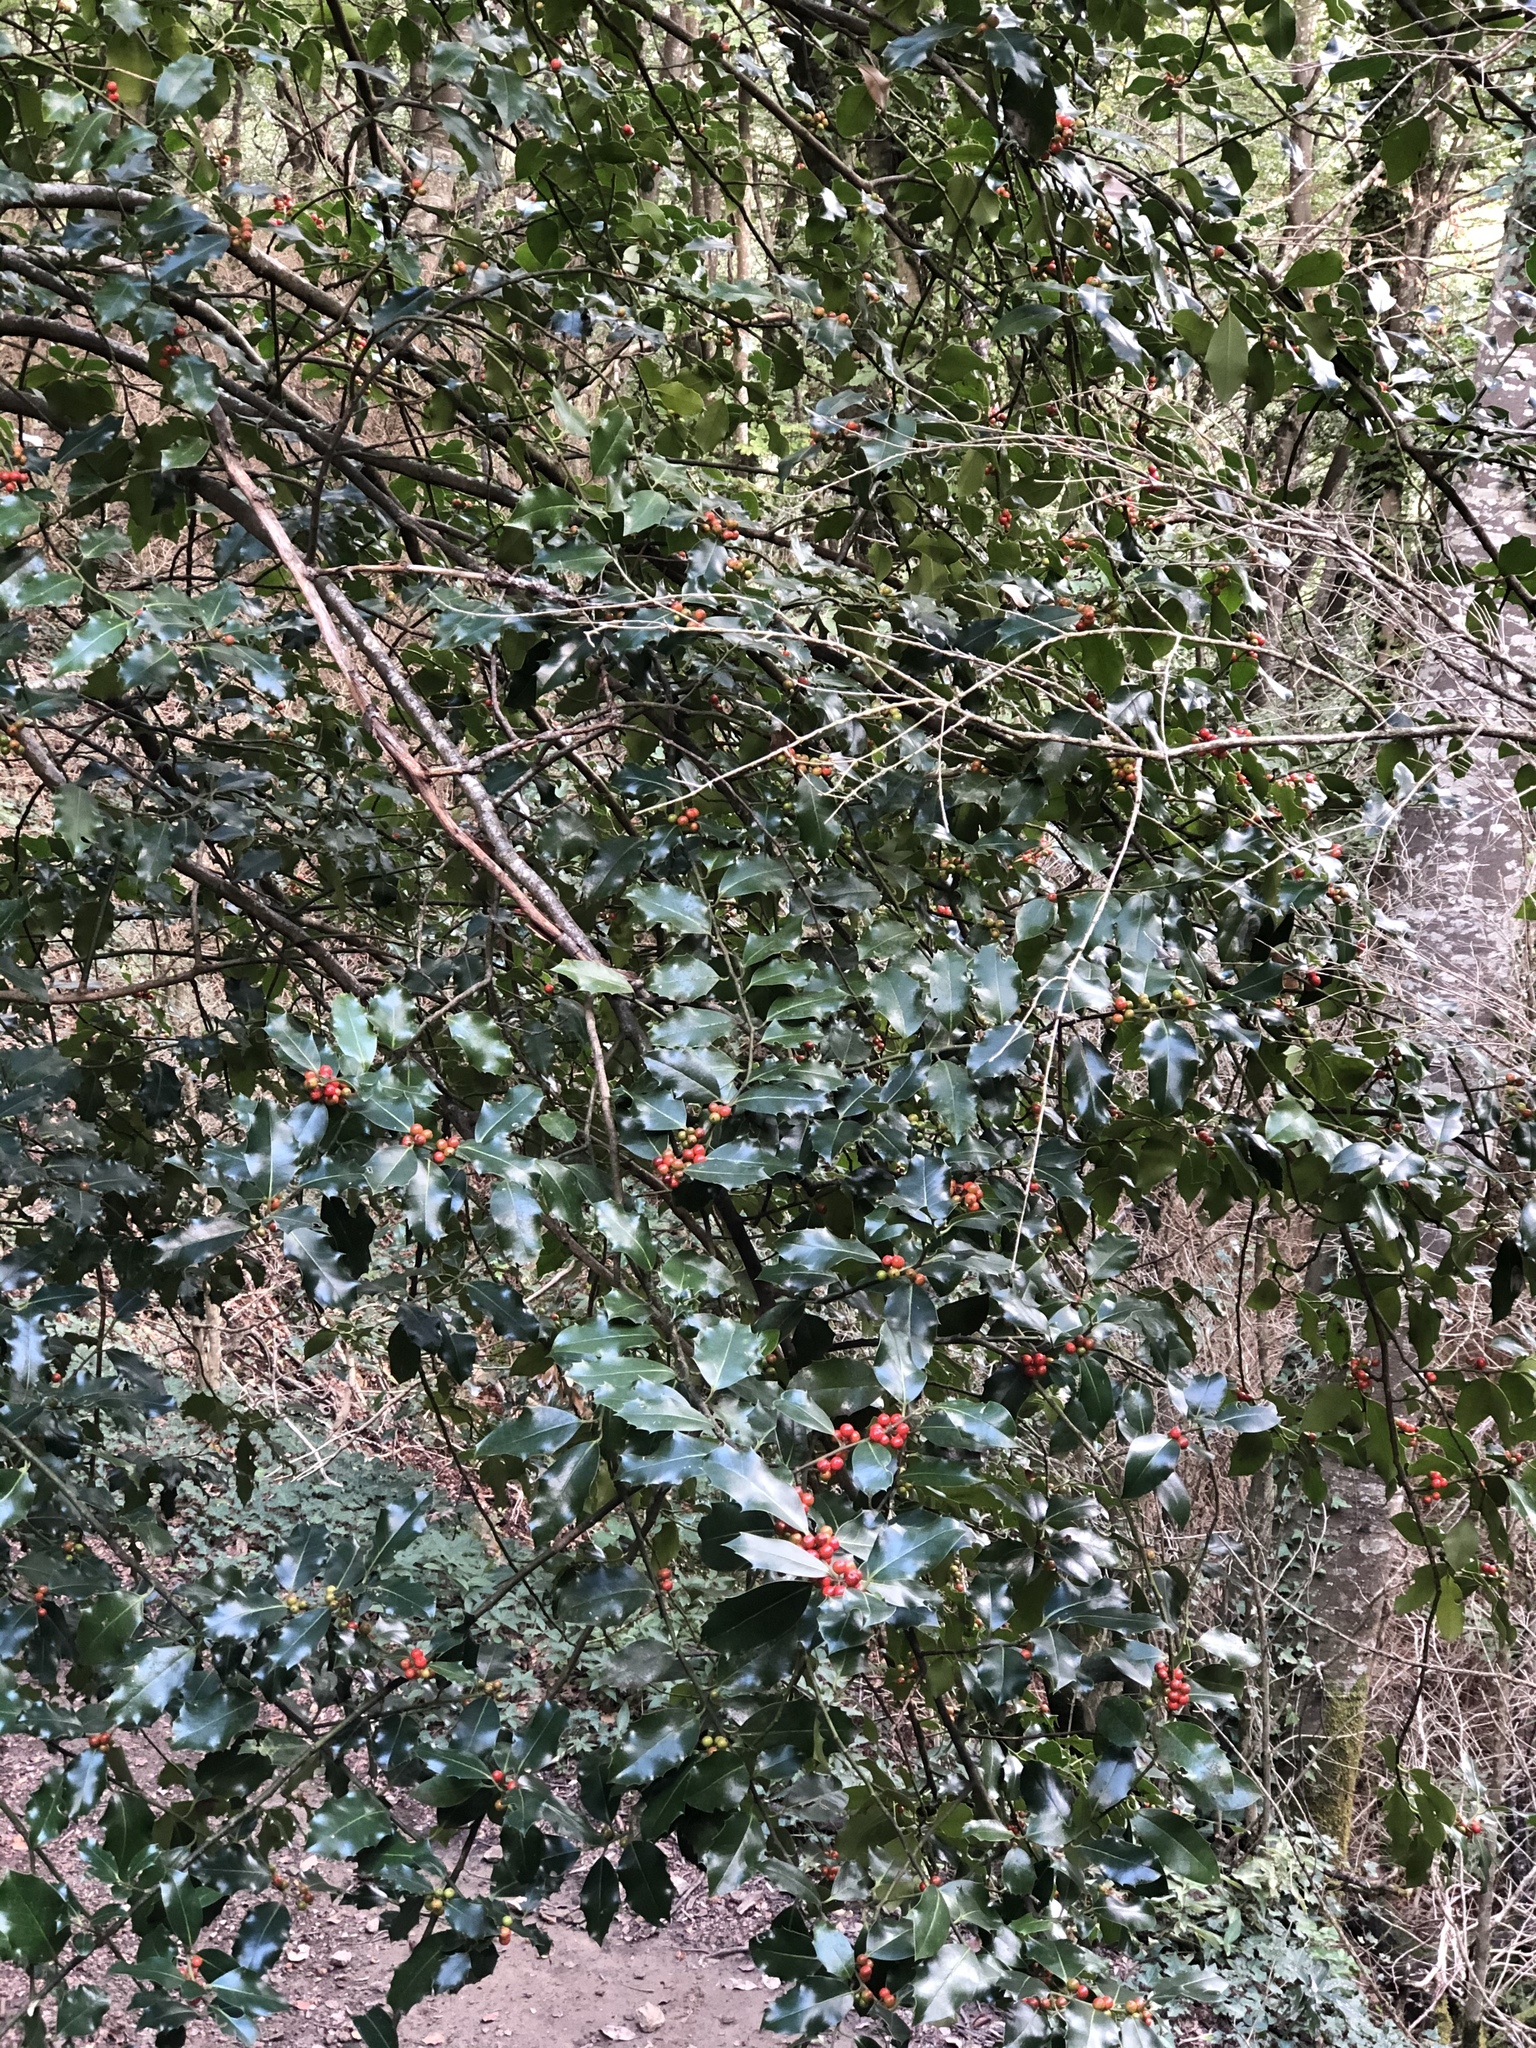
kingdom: Plantae
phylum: Tracheophyta
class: Magnoliopsida
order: Aquifoliales
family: Aquifoliaceae
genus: Ilex
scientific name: Ilex aquifolium
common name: English holly
